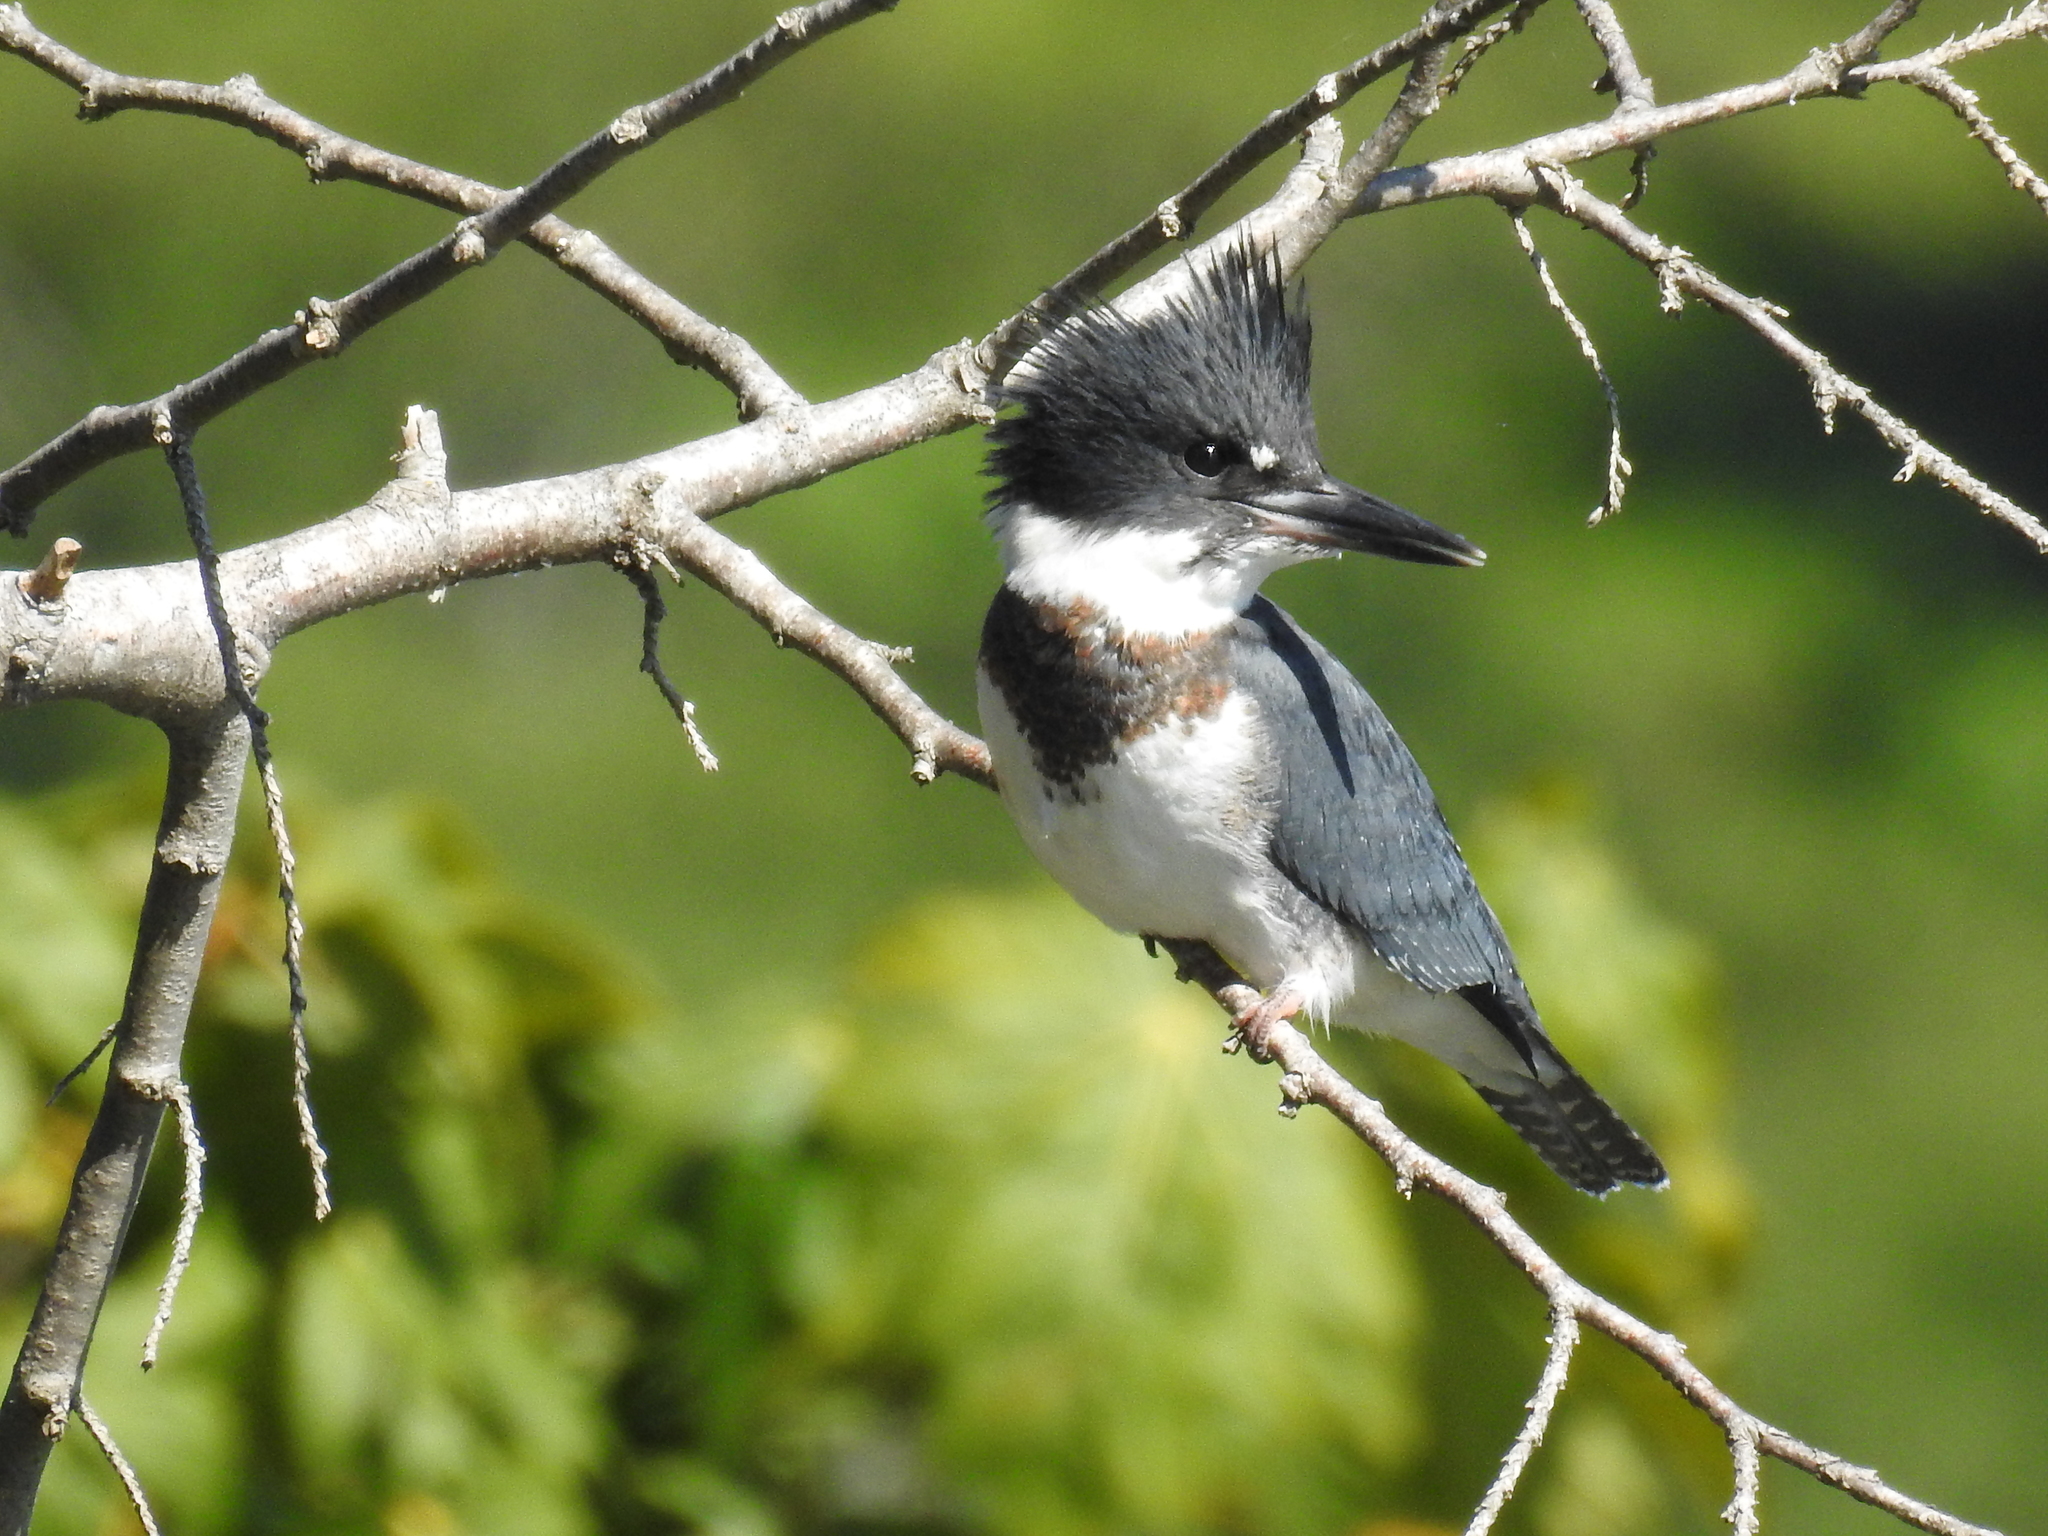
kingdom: Animalia
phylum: Chordata
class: Aves
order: Coraciiformes
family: Alcedinidae
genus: Megaceryle
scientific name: Megaceryle alcyon
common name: Belted kingfisher
